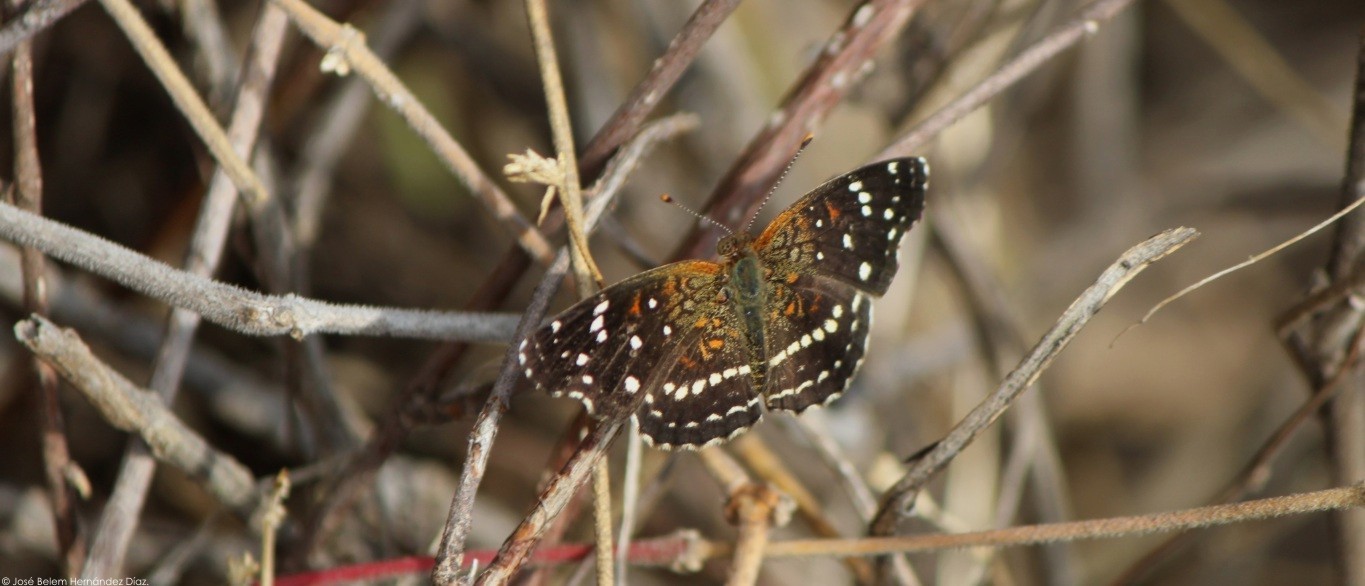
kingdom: Animalia
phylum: Arthropoda
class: Insecta
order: Lepidoptera
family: Nymphalidae
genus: Anthanassa
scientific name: Anthanassa texana
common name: Texan crescent
